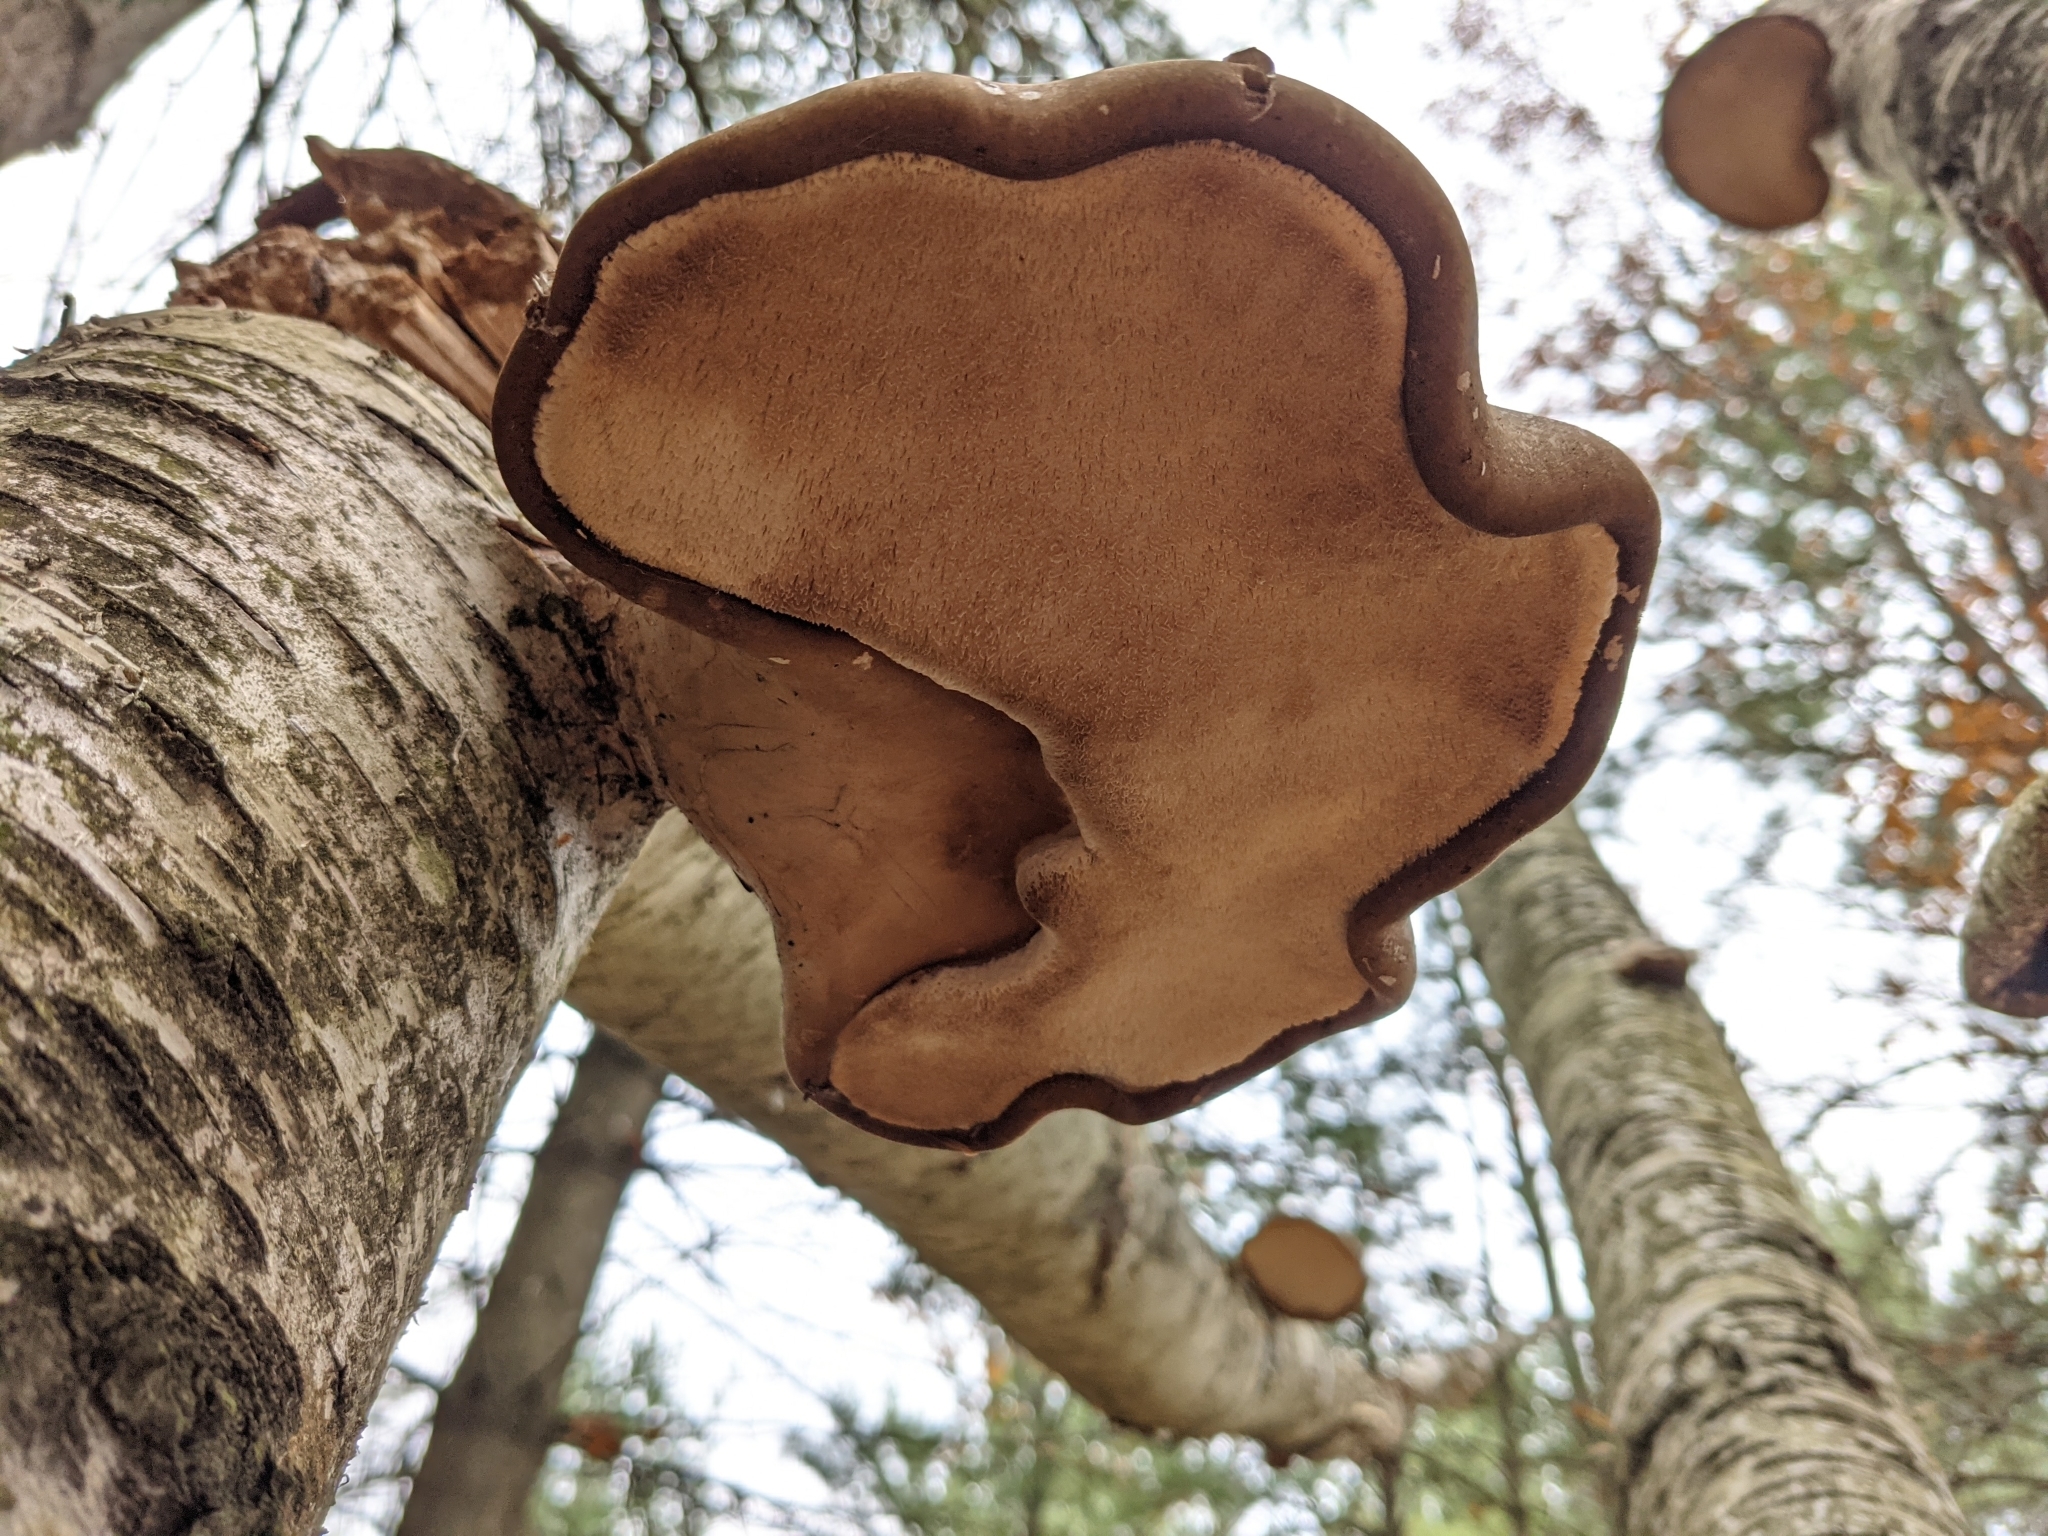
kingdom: Fungi
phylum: Basidiomycota
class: Agaricomycetes
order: Polyporales
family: Fomitopsidaceae
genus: Fomitopsis
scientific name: Fomitopsis betulina
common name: Birch polypore
